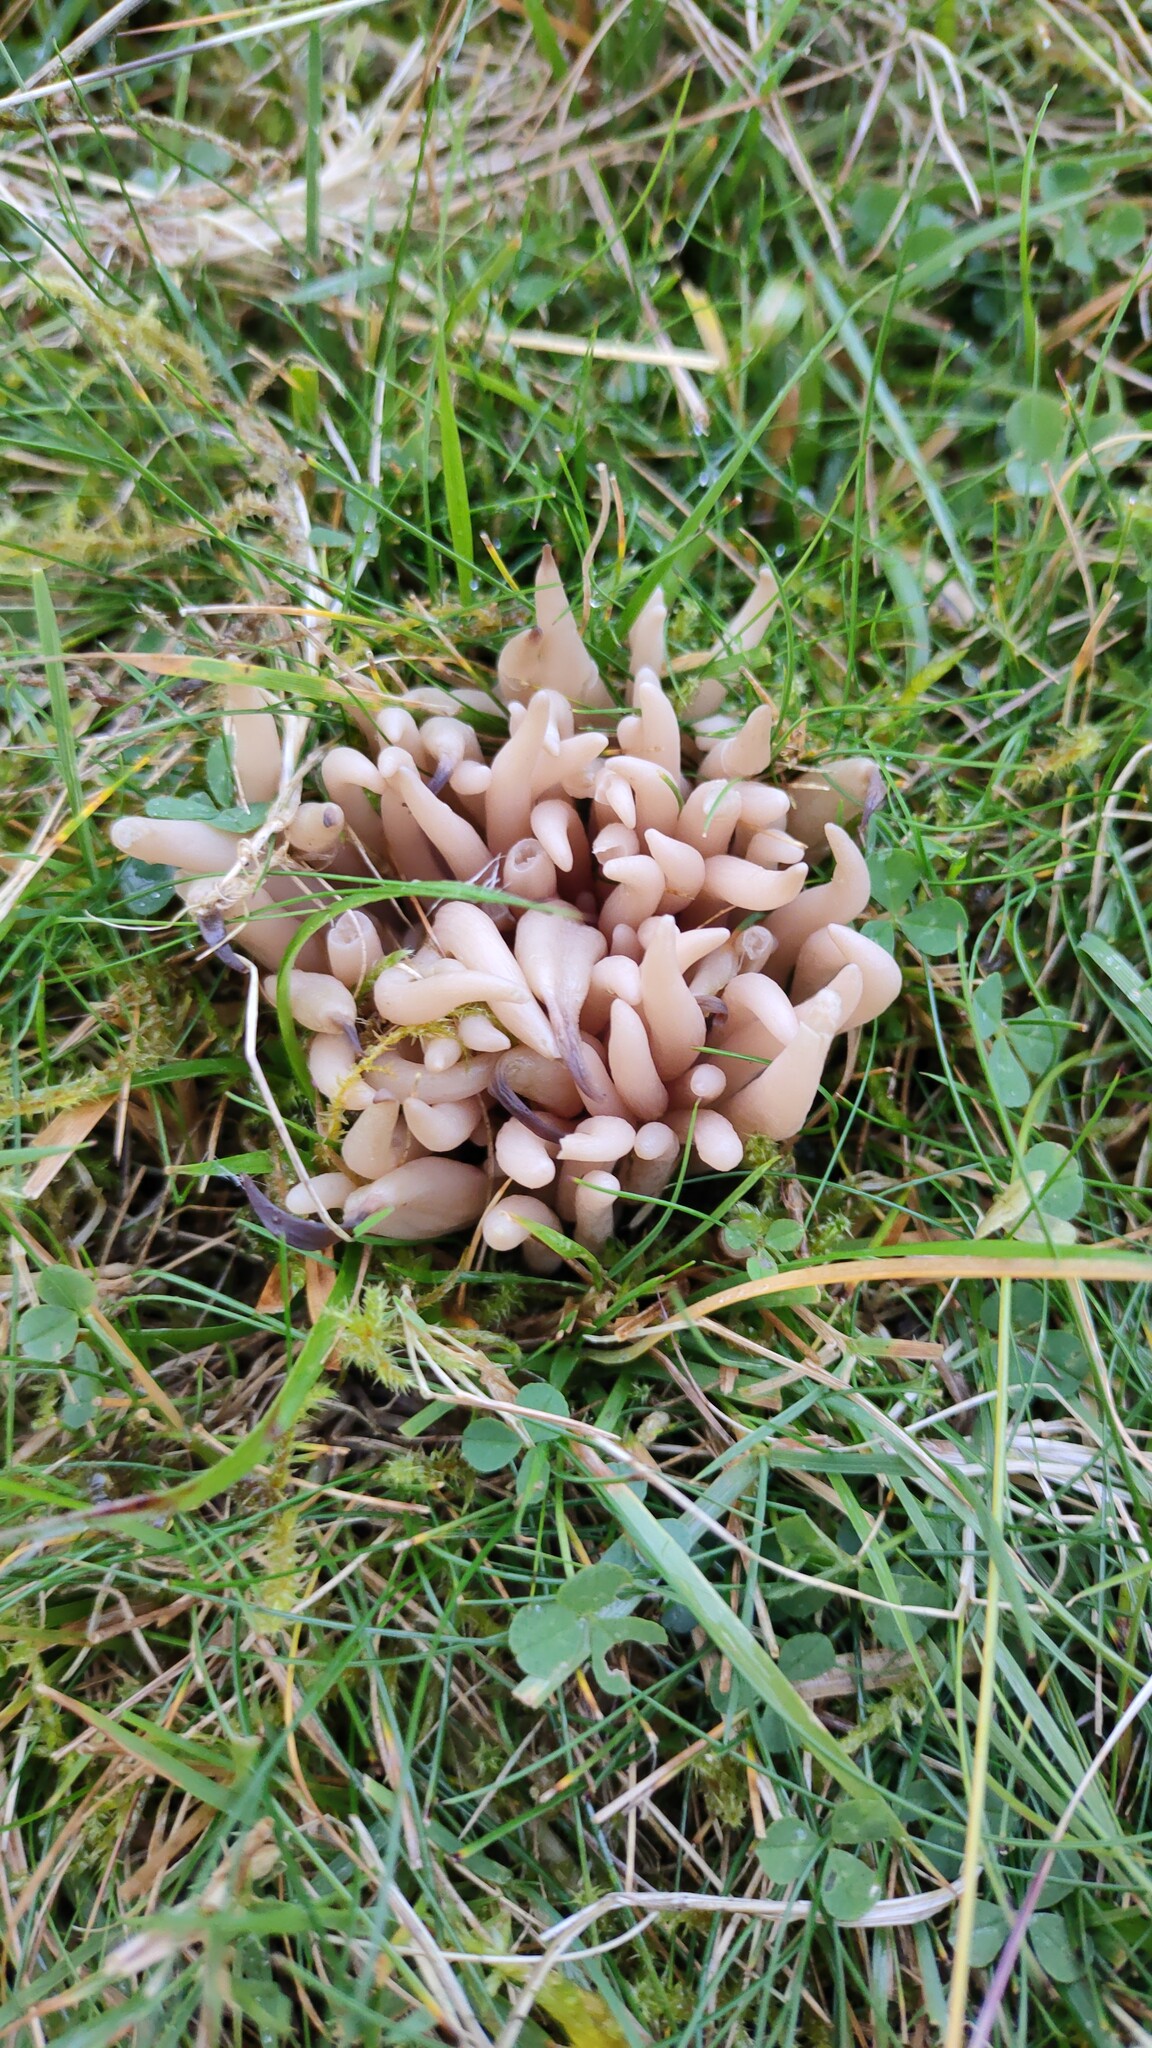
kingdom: Fungi
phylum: Basidiomycota
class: Agaricomycetes
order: Agaricales
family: Clavariaceae
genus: Clavaria
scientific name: Clavaria fumosa
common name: Smoky spindles
